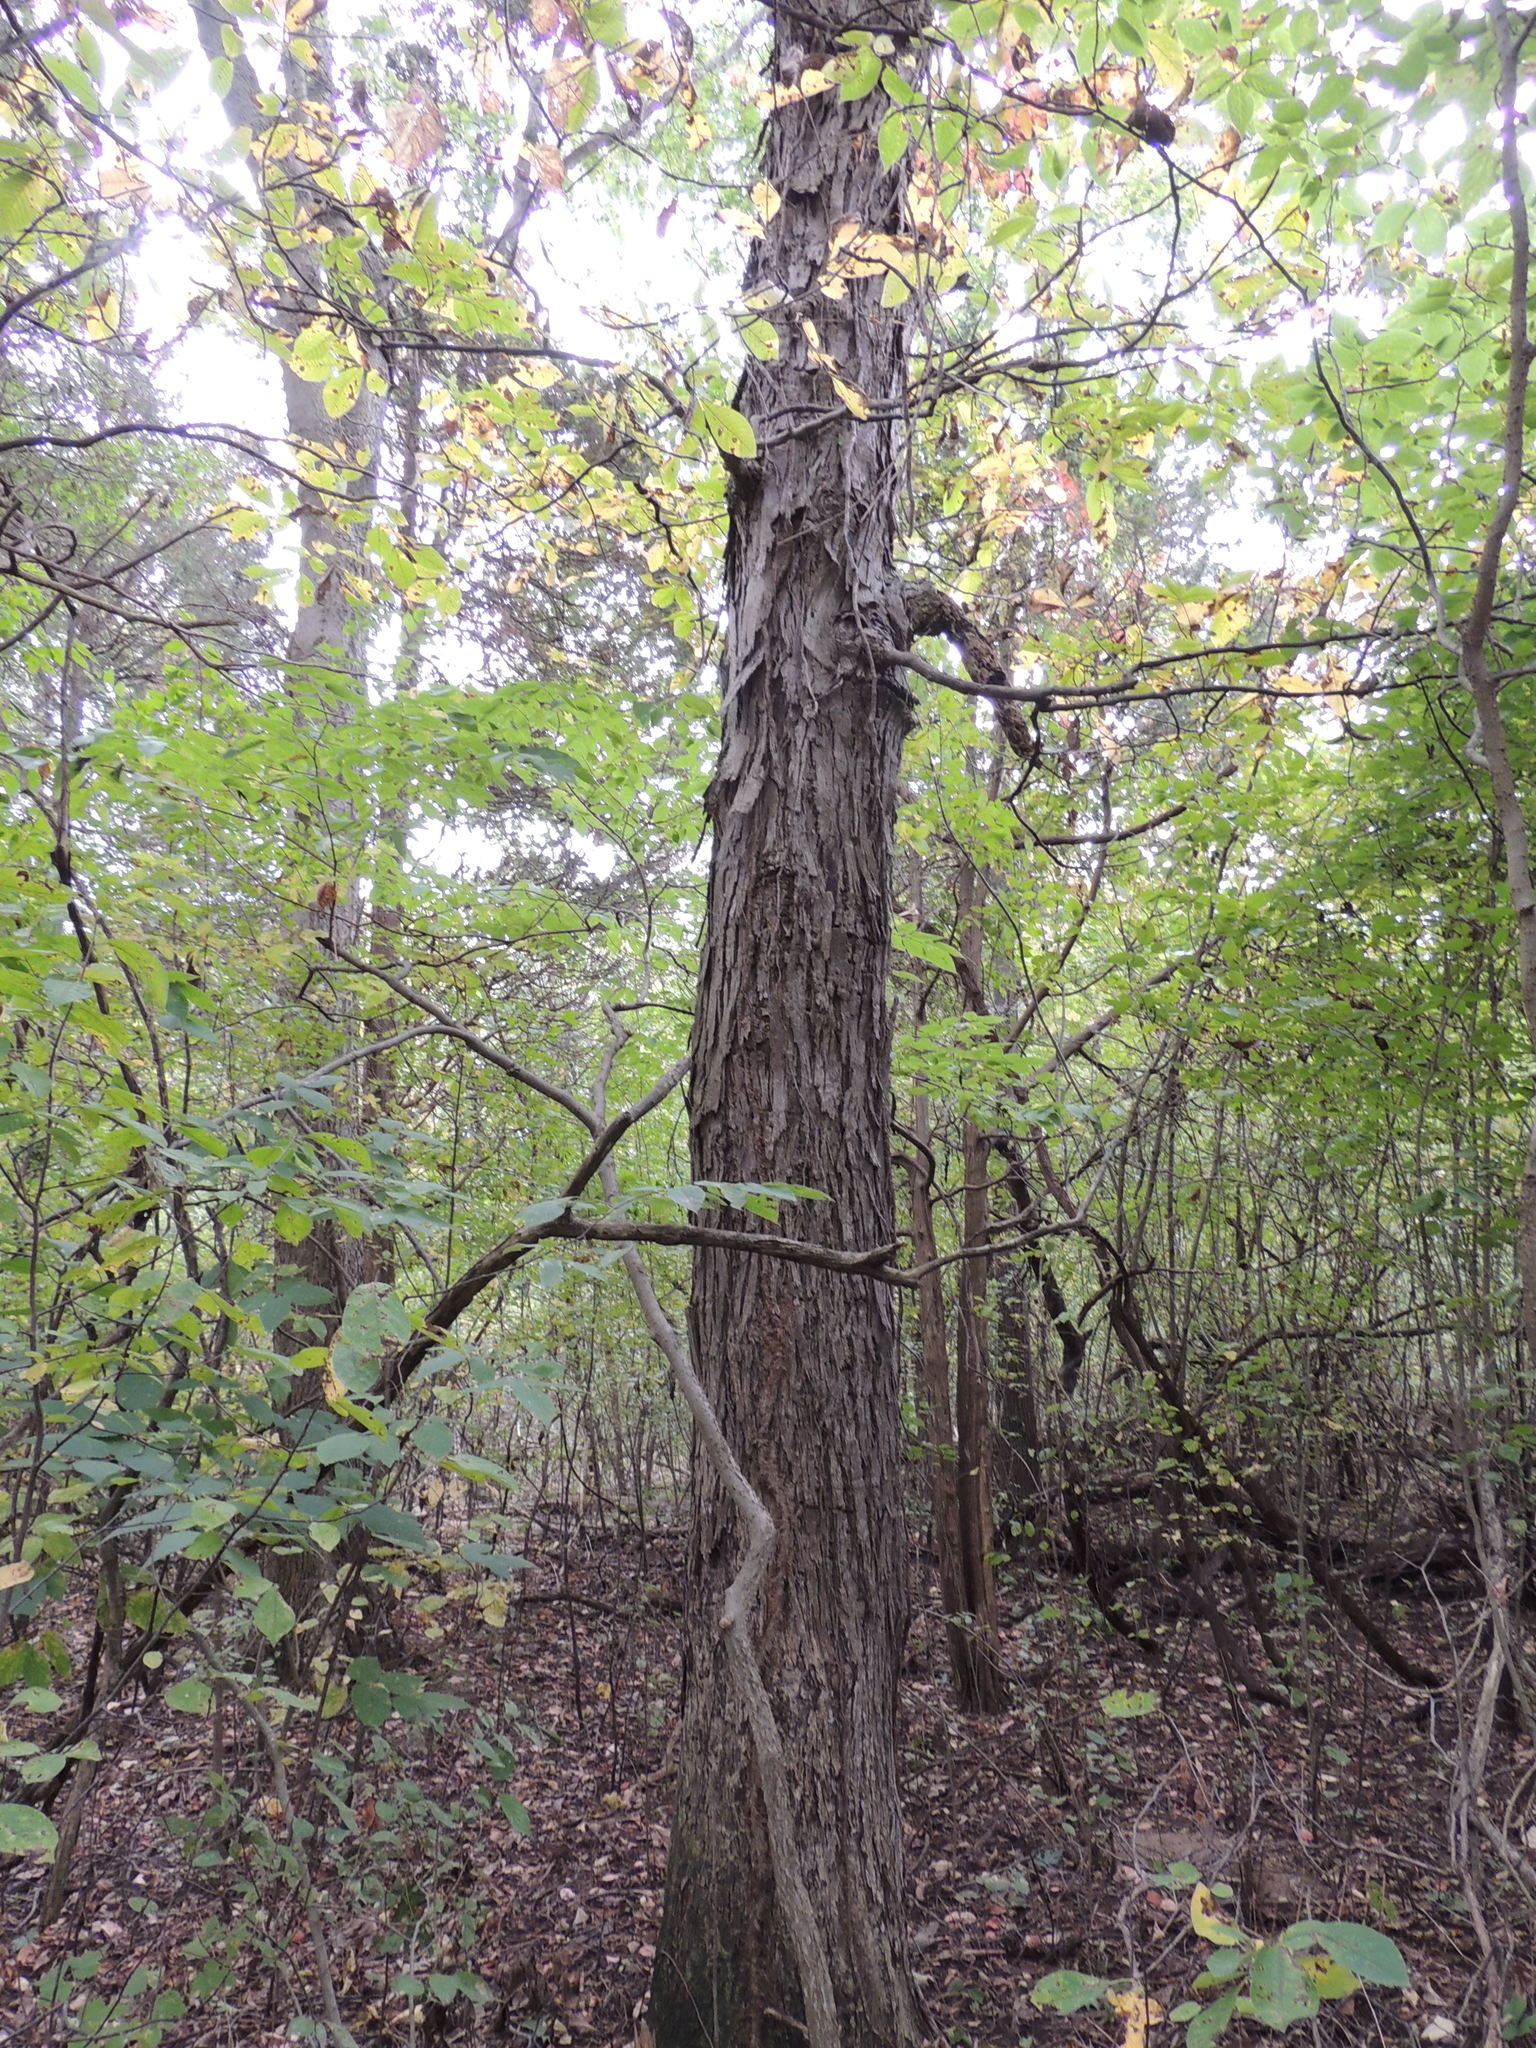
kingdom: Plantae
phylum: Tracheophyta
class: Magnoliopsida
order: Fagales
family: Juglandaceae
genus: Carya
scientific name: Carya ovata
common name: Shagbark hickory
